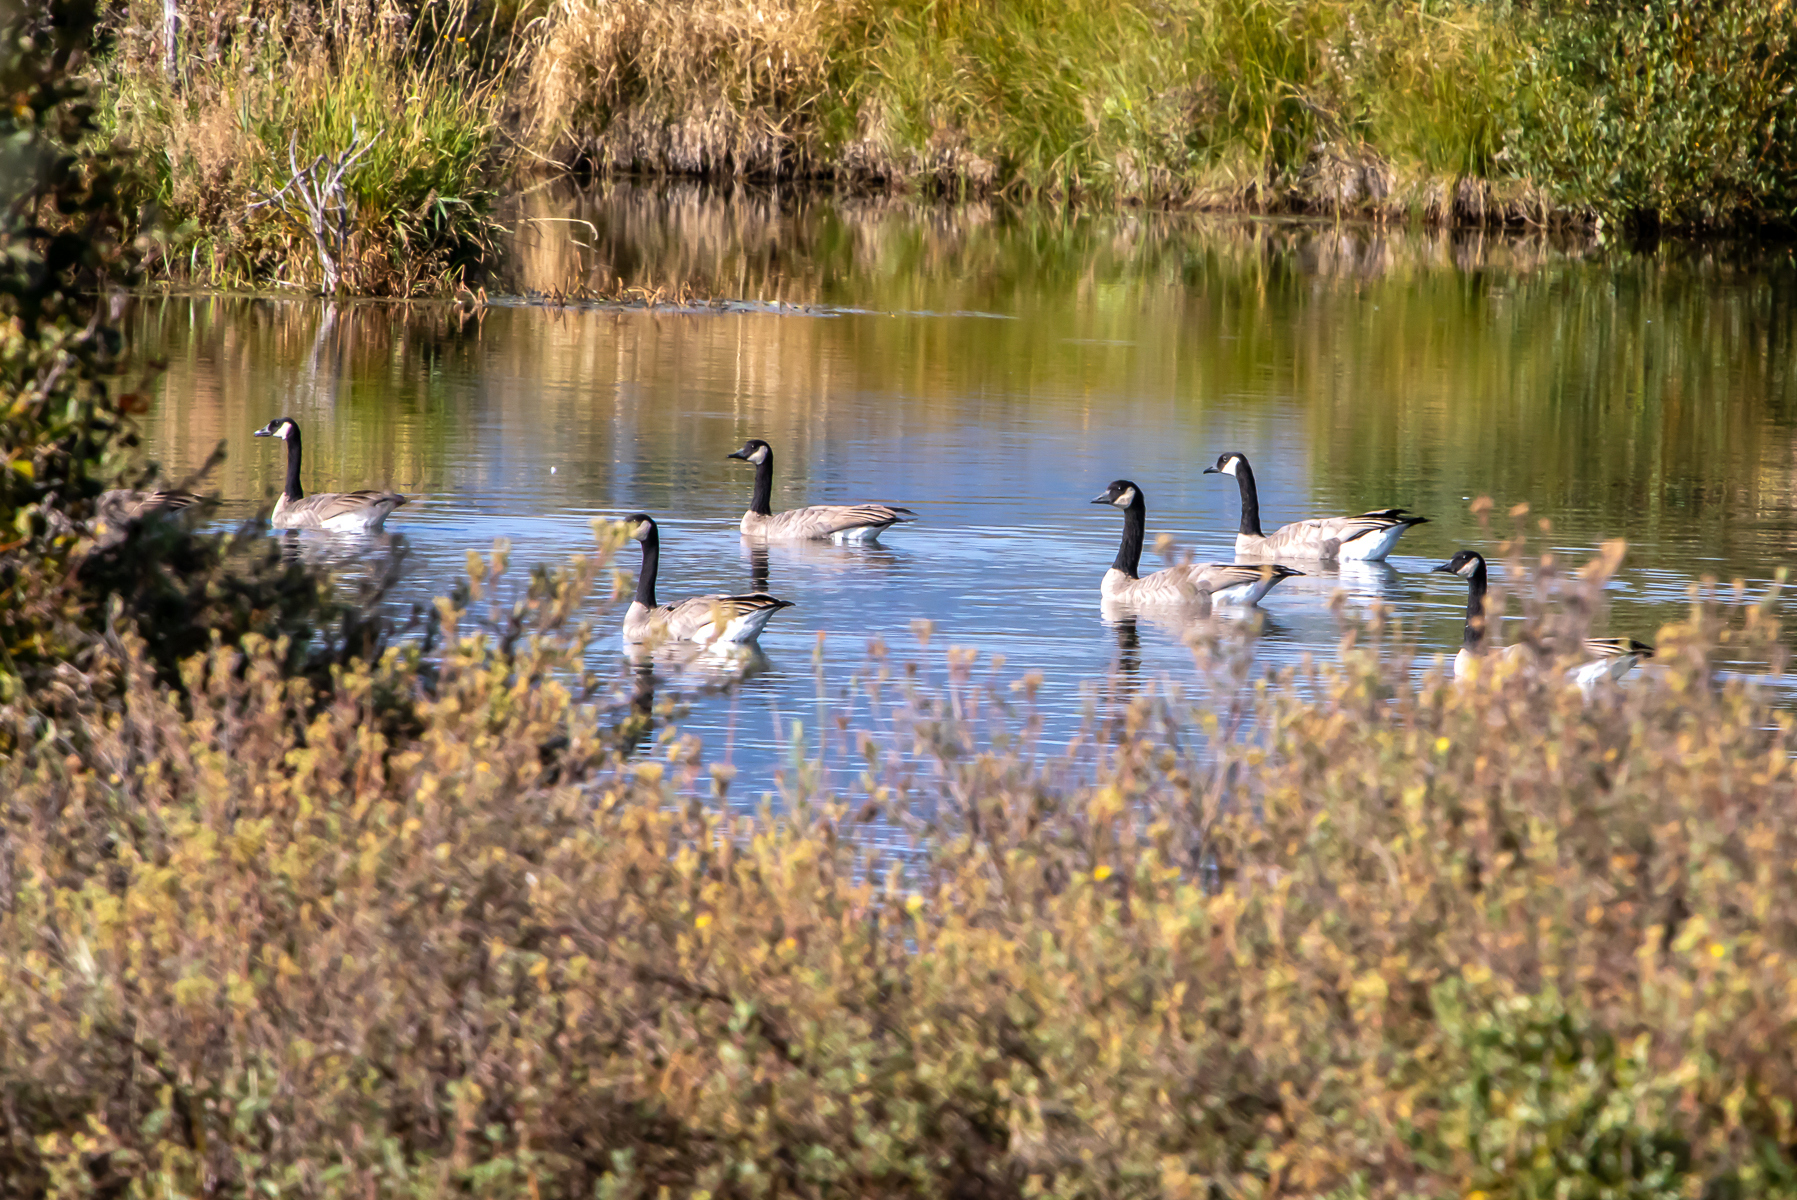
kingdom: Animalia
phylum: Chordata
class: Aves
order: Anseriformes
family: Anatidae
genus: Branta
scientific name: Branta canadensis
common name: Canada goose
